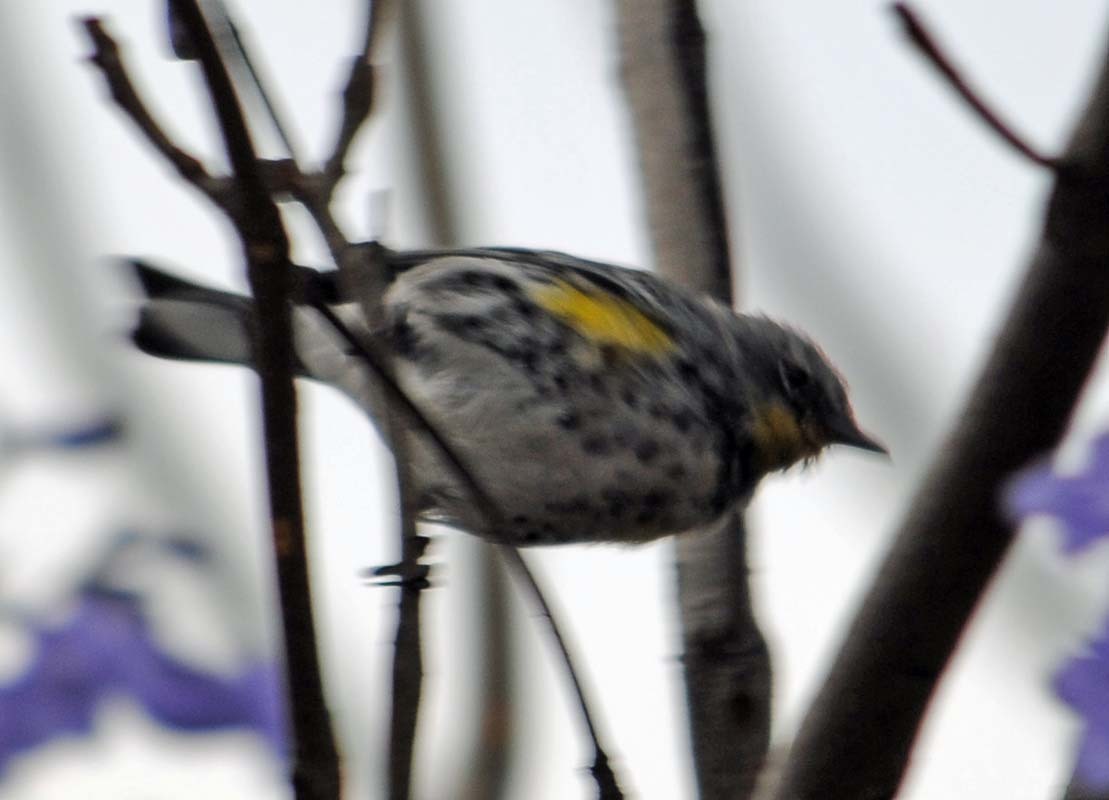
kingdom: Animalia
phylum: Chordata
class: Aves
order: Passeriformes
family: Parulidae
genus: Setophaga
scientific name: Setophaga auduboni
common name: Audubon's warbler
